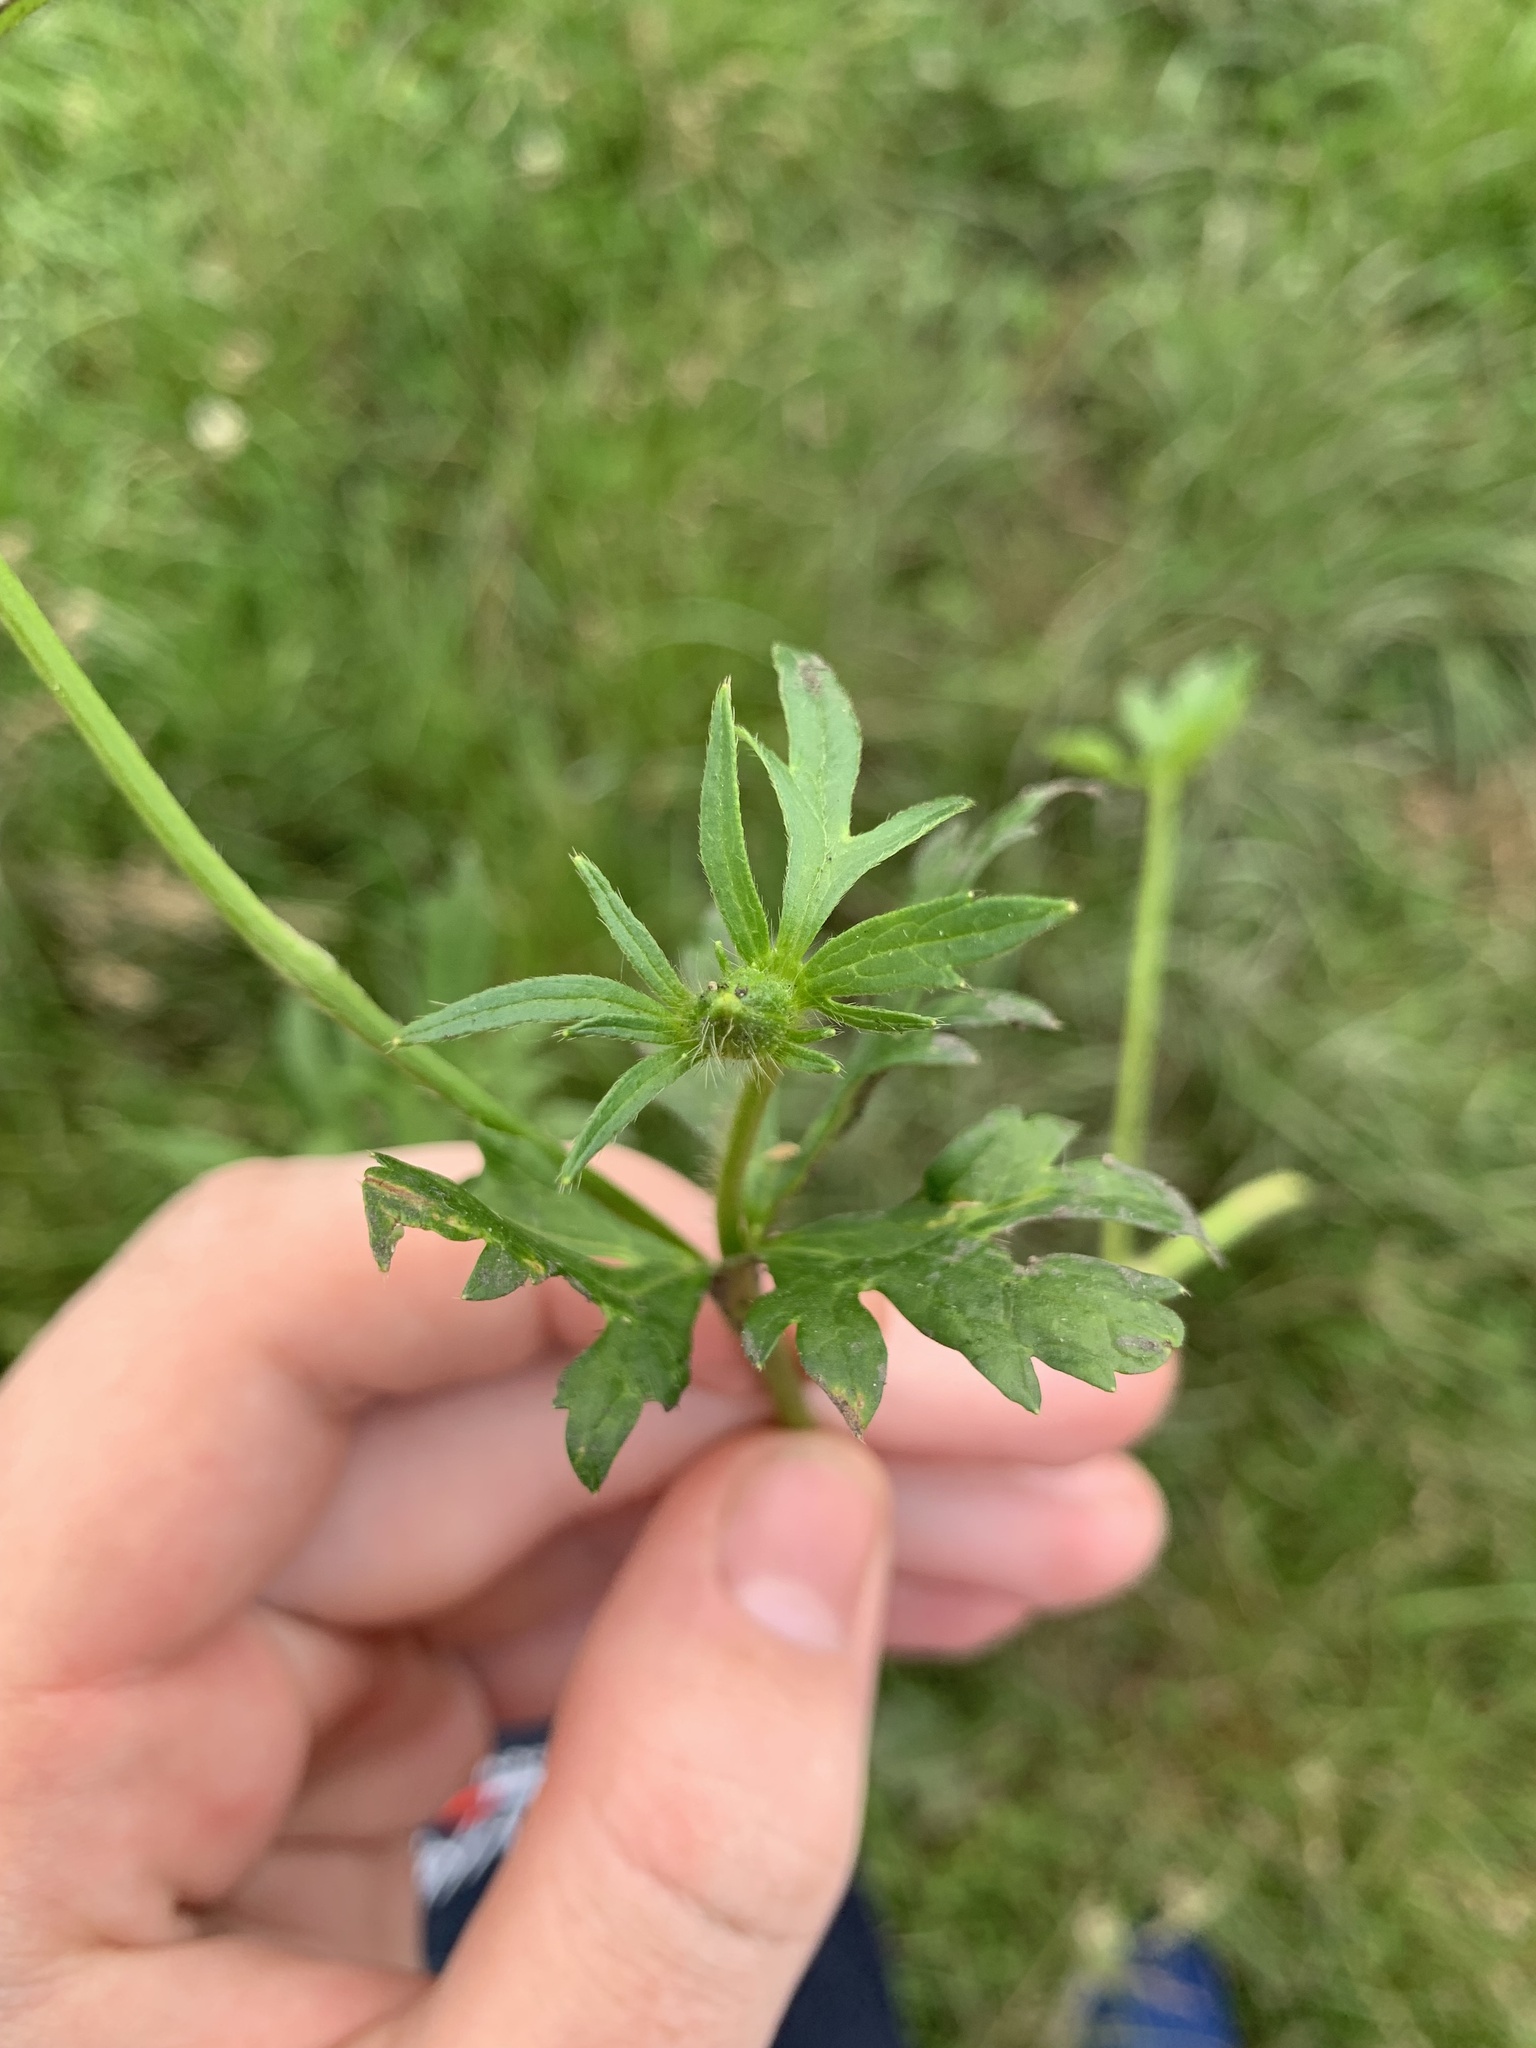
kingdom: Plantae
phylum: Tracheophyta
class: Magnoliopsida
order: Ranunculales
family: Ranunculaceae
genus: Ranunculus
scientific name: Ranunculus polyanthemos
